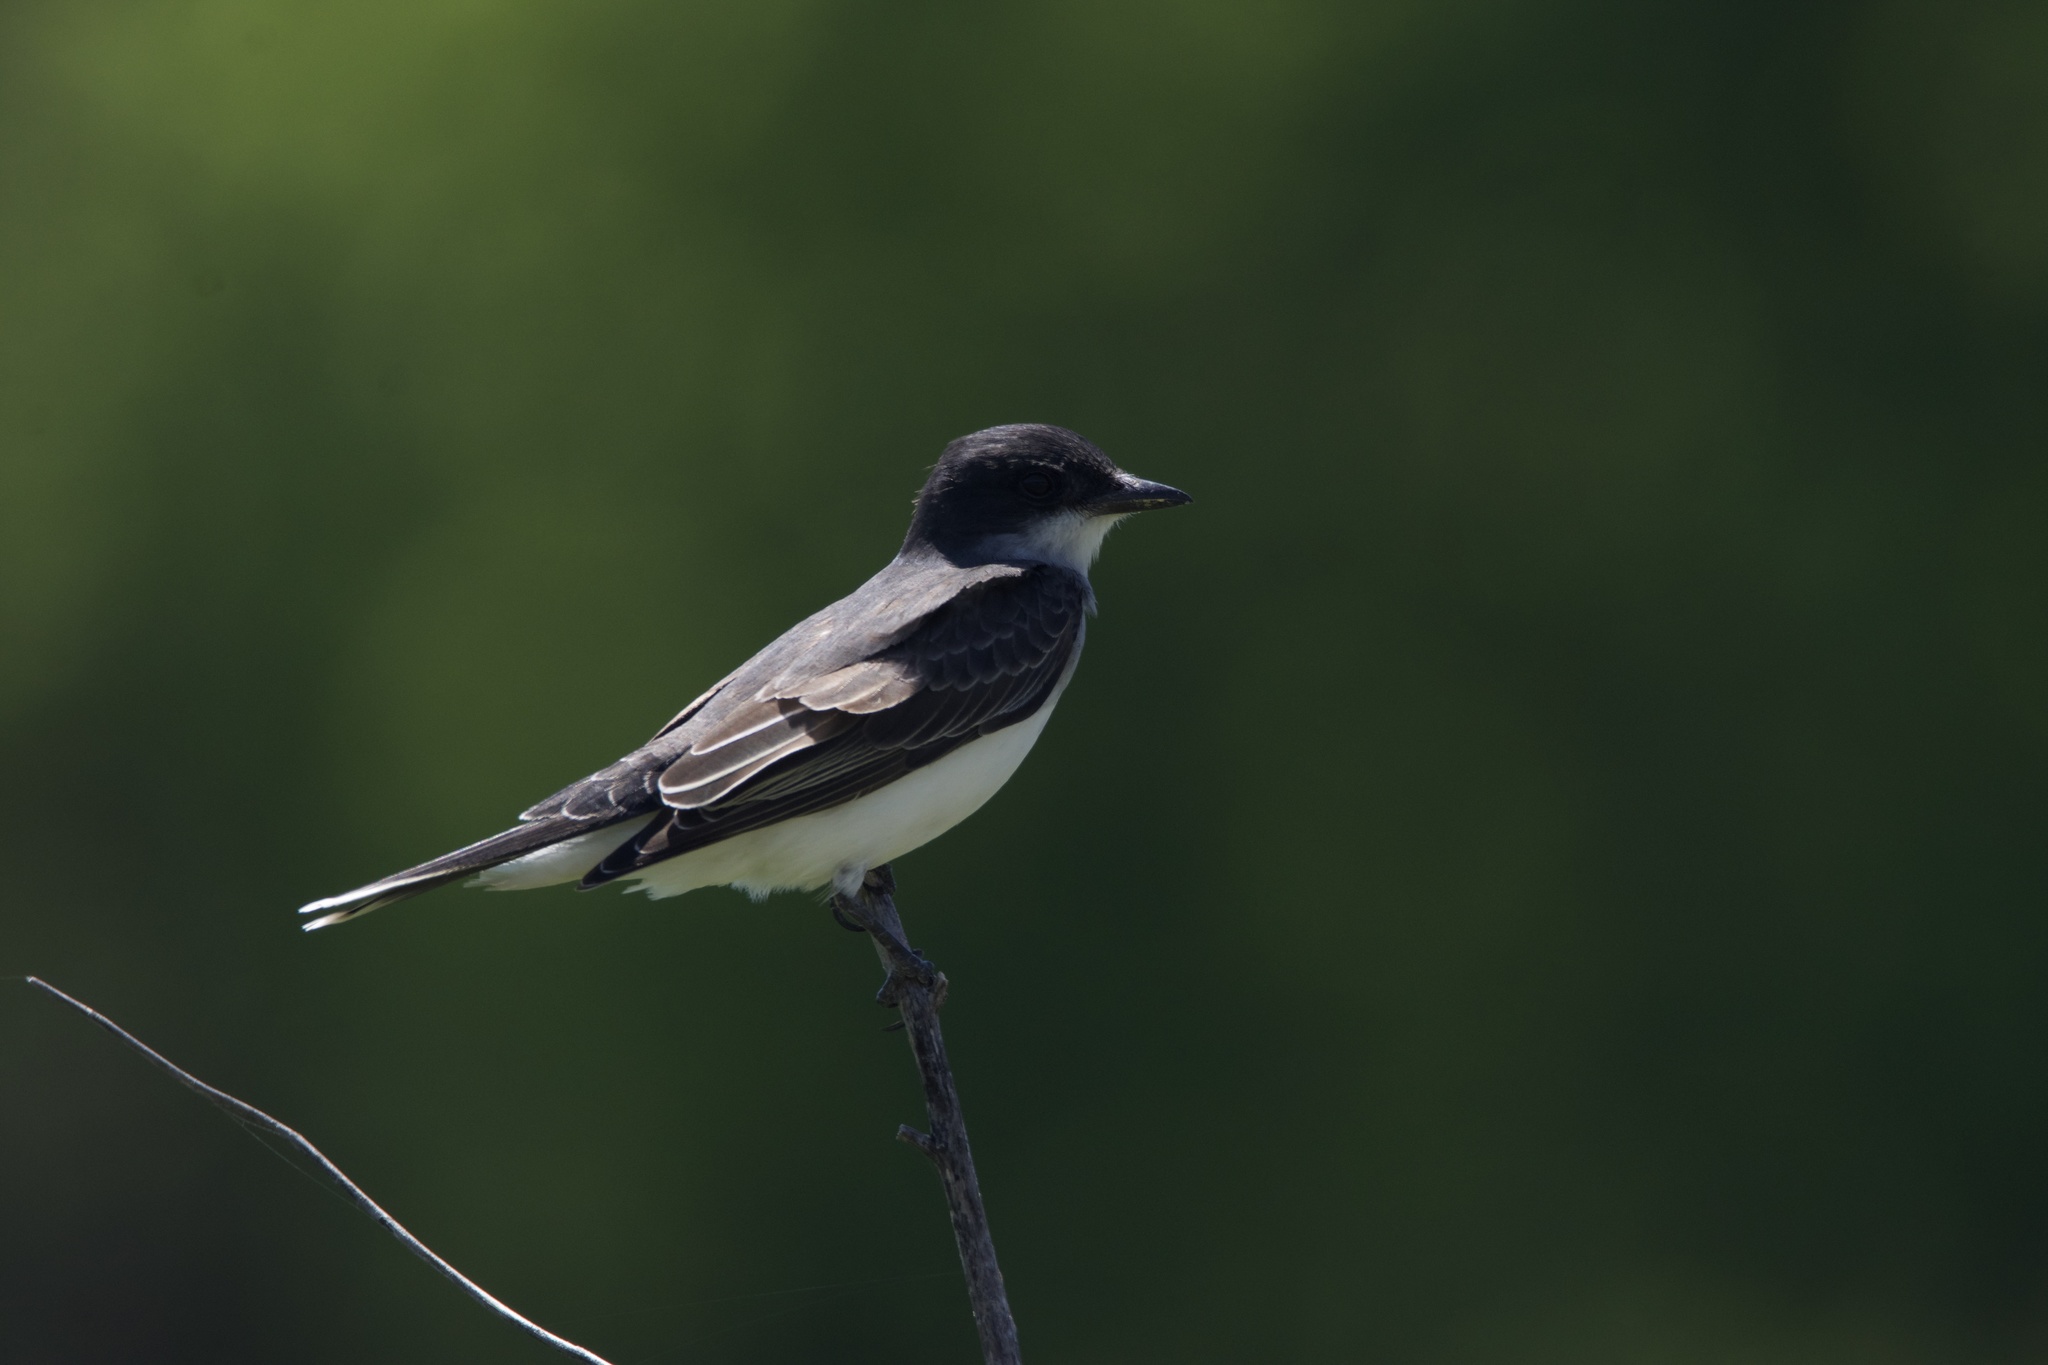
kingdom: Animalia
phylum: Chordata
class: Aves
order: Passeriformes
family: Tyrannidae
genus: Tyrannus
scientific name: Tyrannus tyrannus
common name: Eastern kingbird
